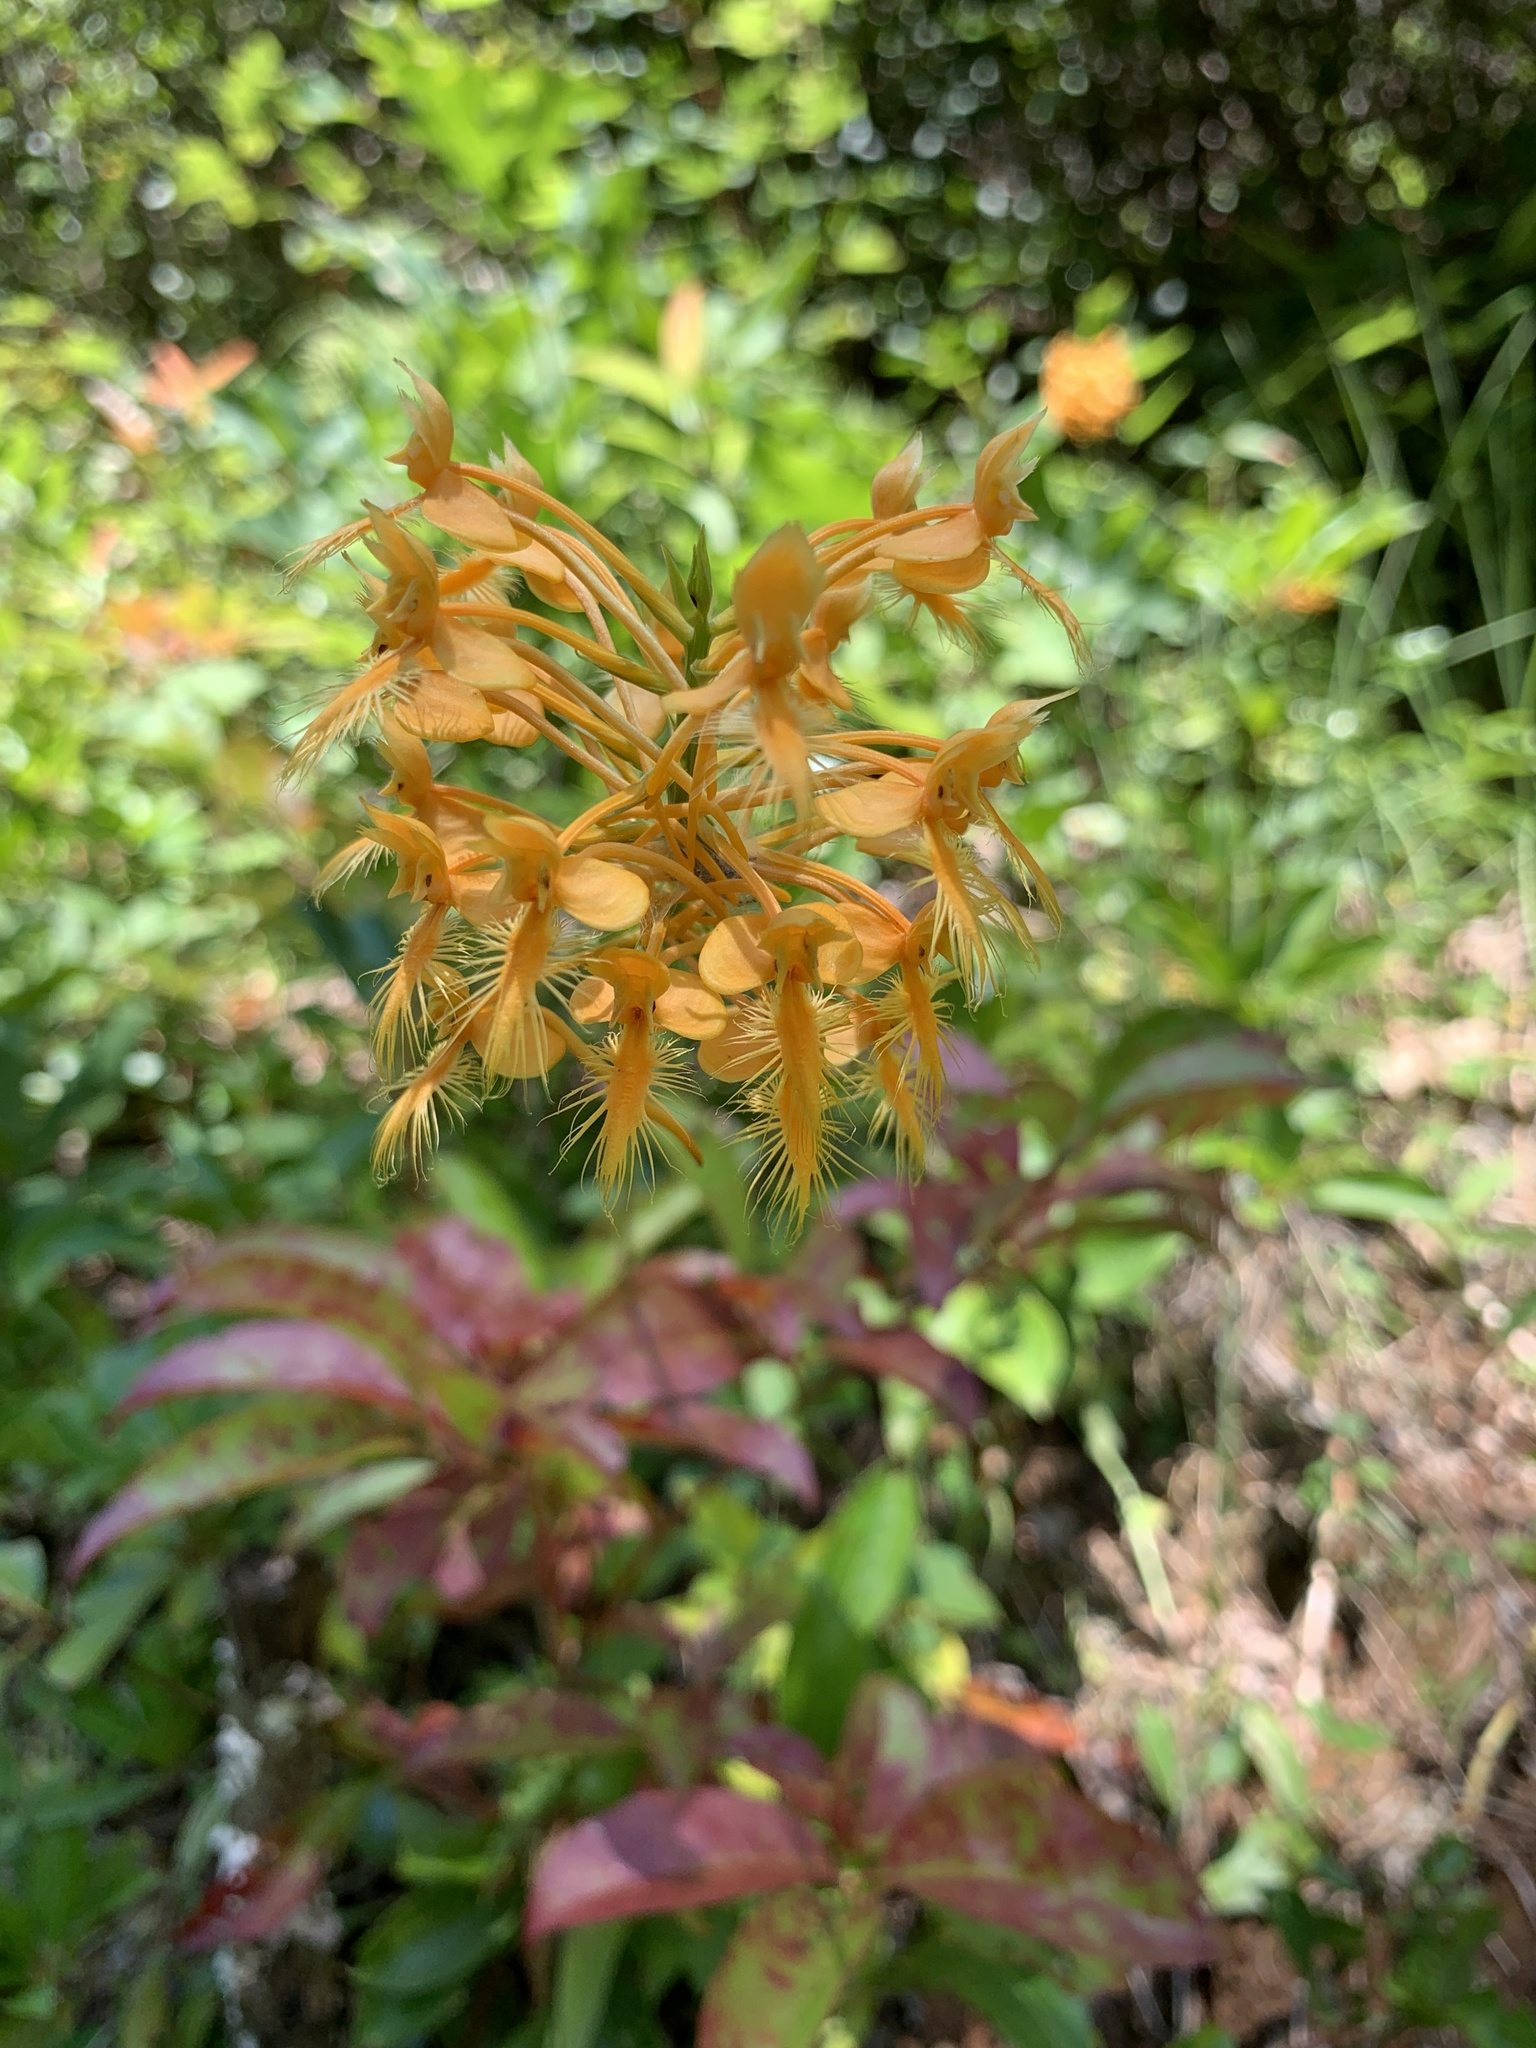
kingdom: Plantae
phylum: Tracheophyta
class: Liliopsida
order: Asparagales
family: Orchidaceae
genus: Platanthera
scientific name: Platanthera ciliaris
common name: Yellow fringed orchid
